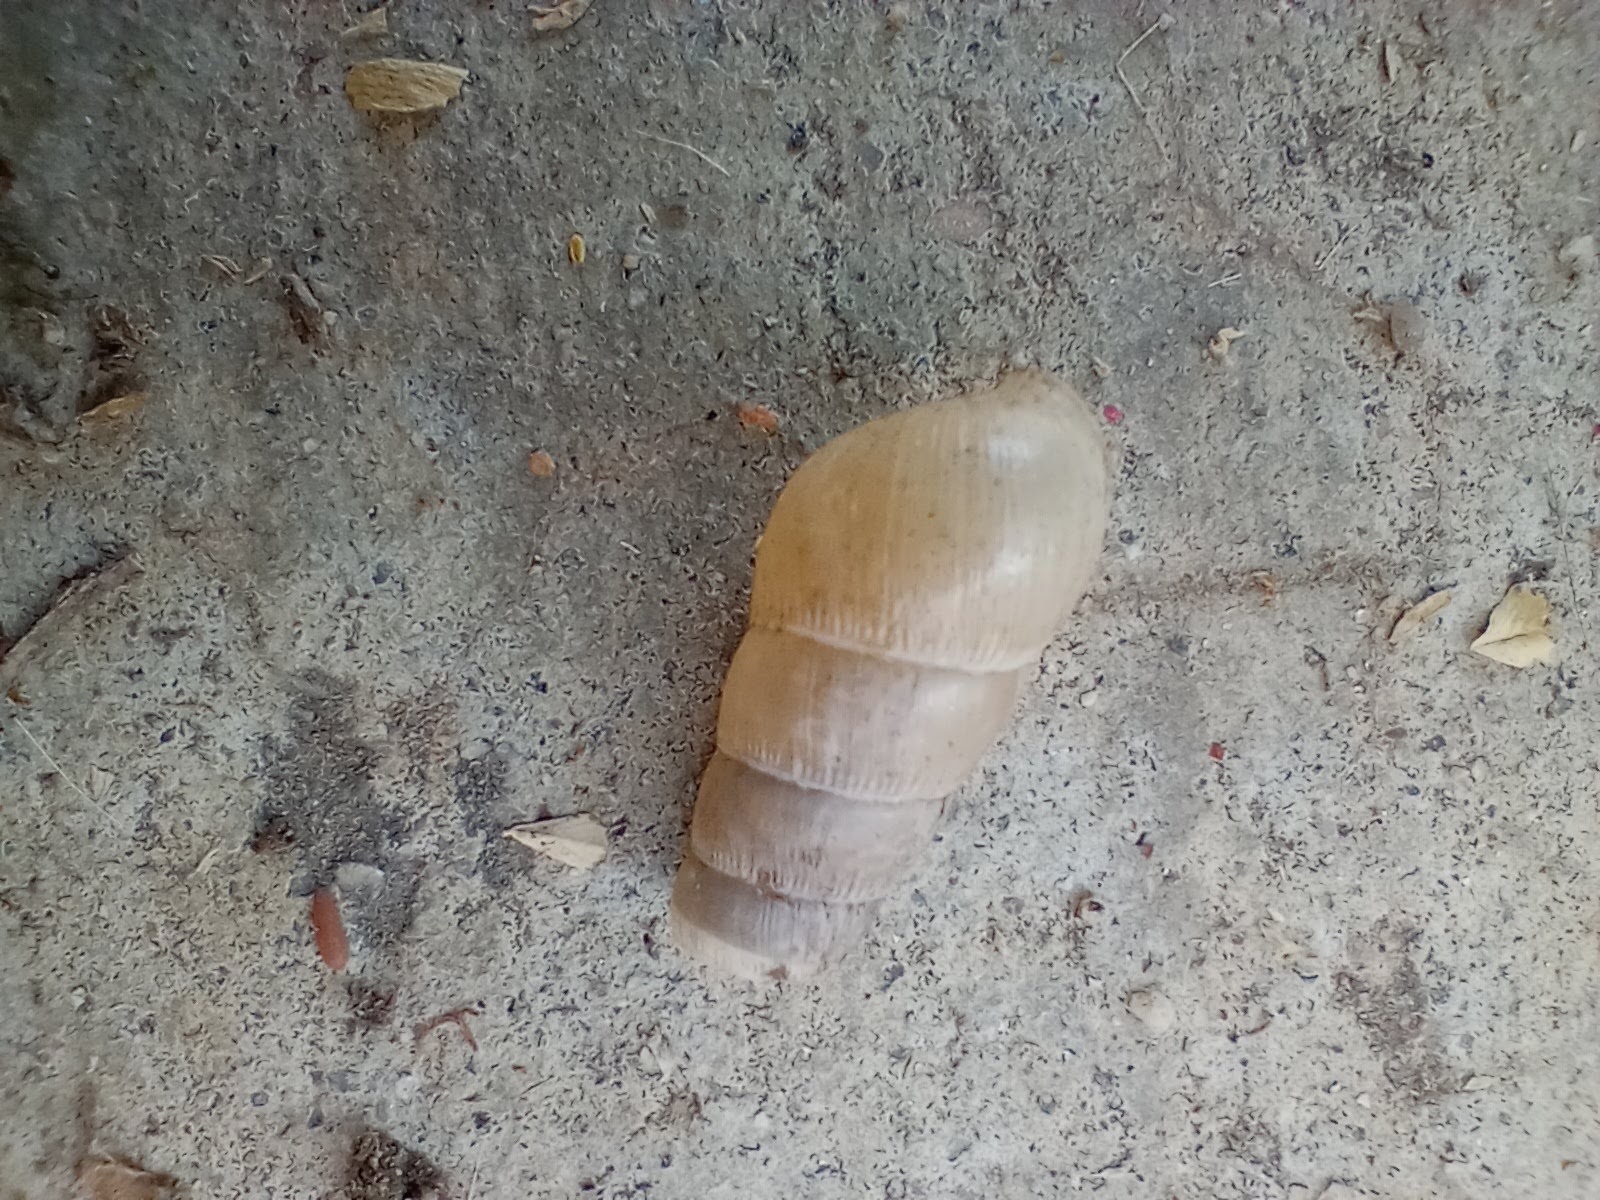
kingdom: Animalia
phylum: Mollusca
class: Gastropoda
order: Stylommatophora
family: Achatinidae
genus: Rumina
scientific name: Rumina decollata
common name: Decollate snail
